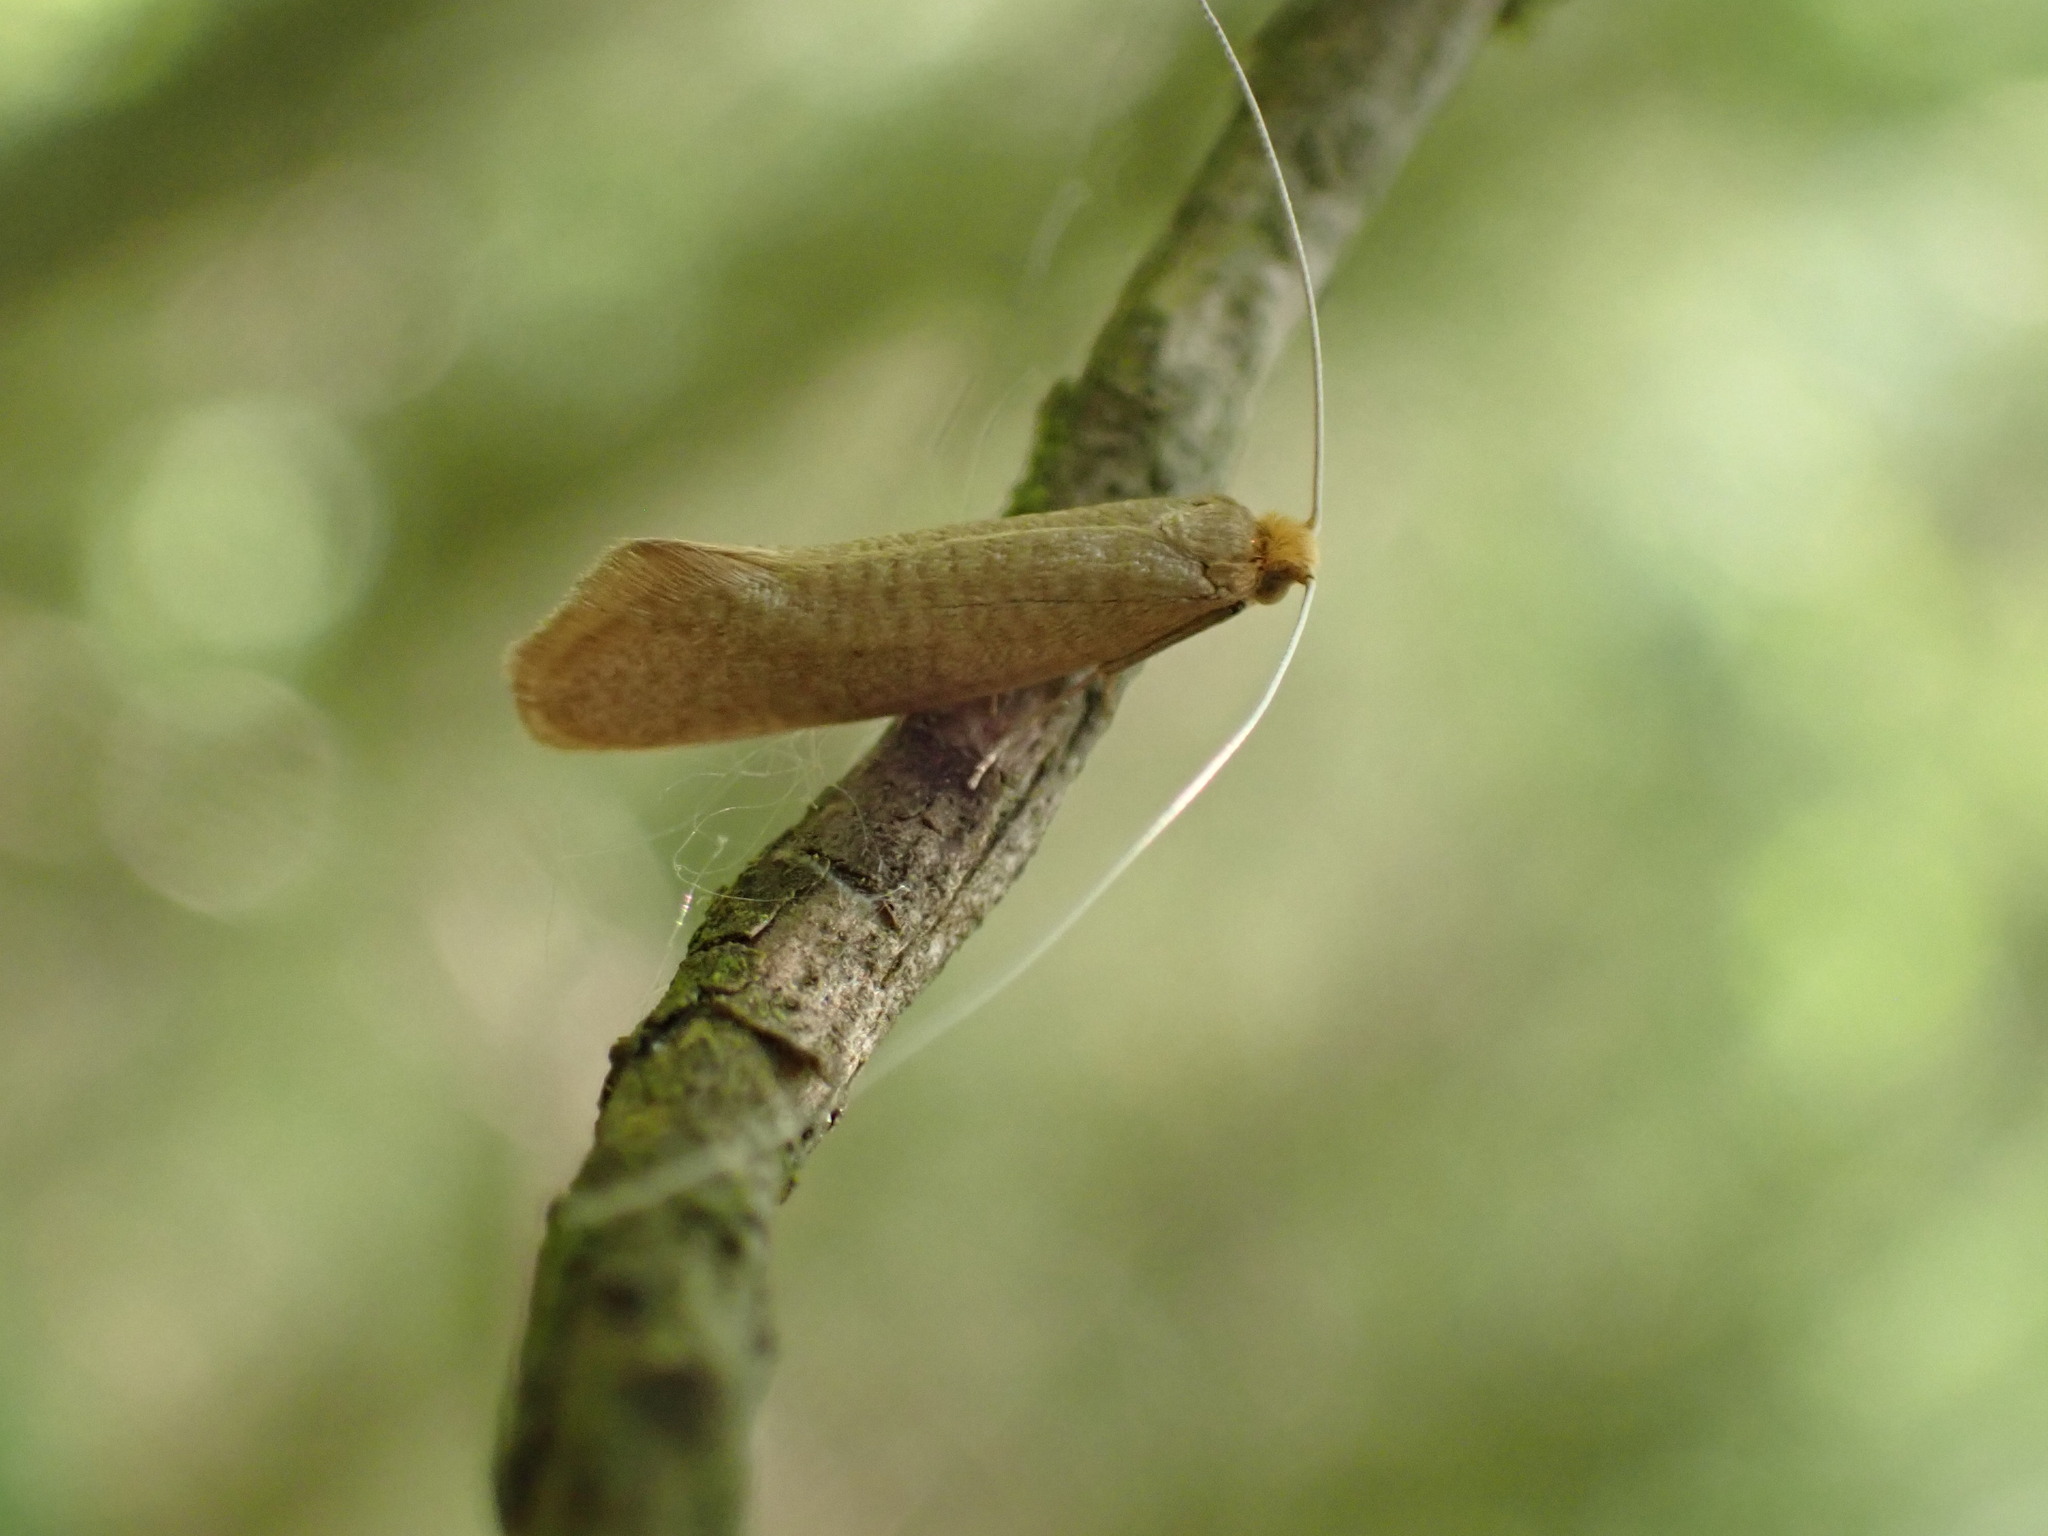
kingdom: Animalia
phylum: Arthropoda
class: Insecta
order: Lepidoptera
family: Adelidae
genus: Nematopogon
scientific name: Nematopogon swammerdamella
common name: Large long-horn
